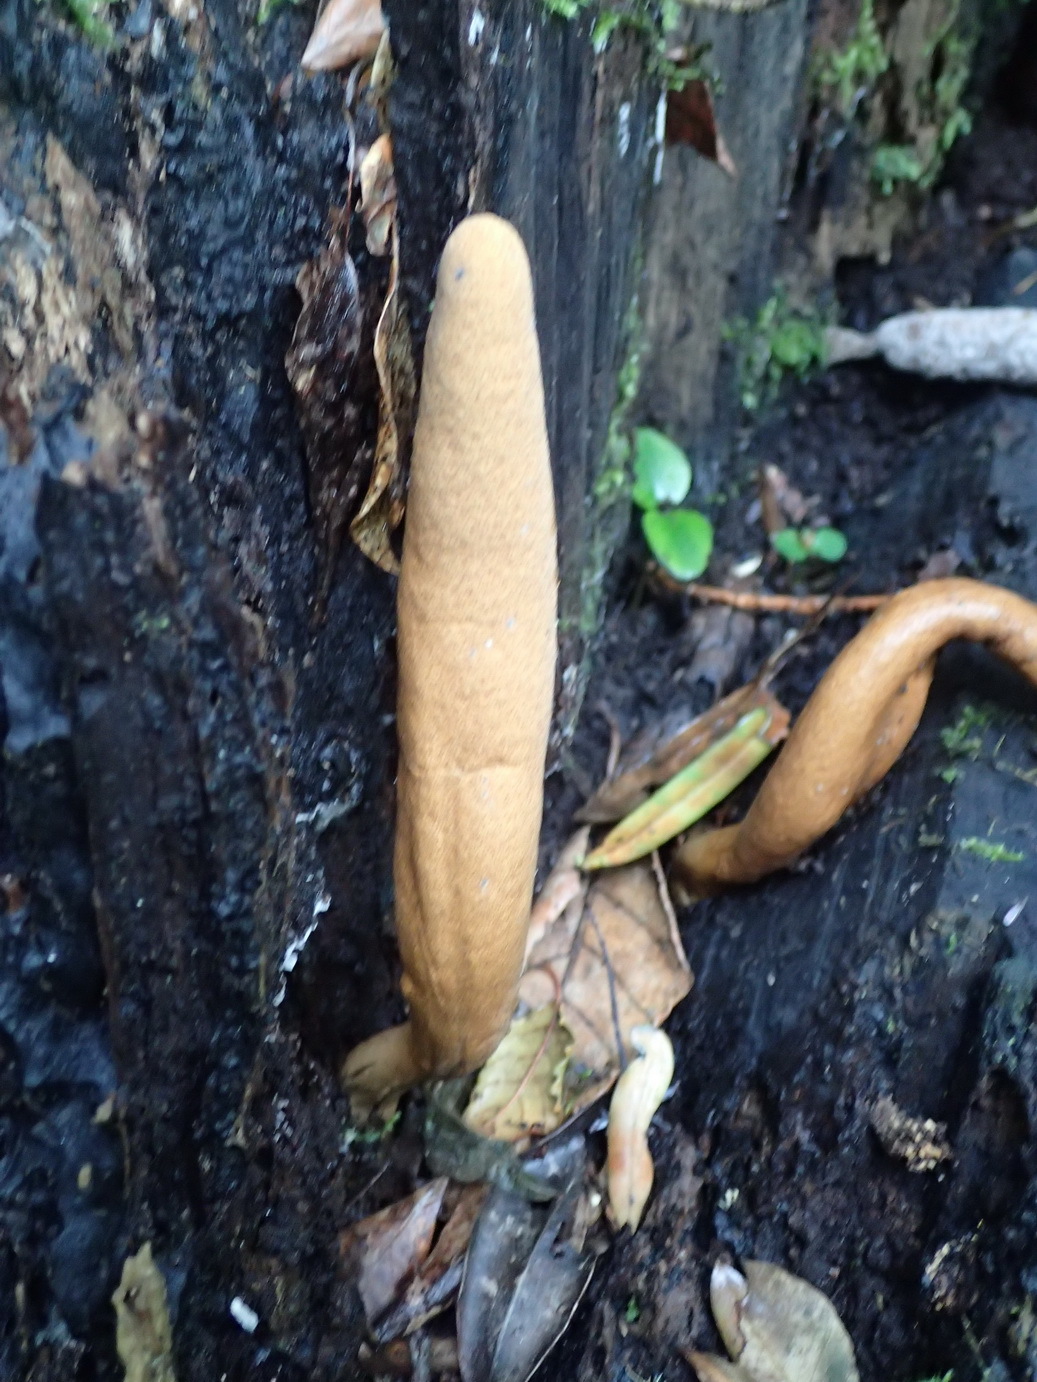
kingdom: Fungi
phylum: Ascomycota
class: Sordariomycetes
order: Xylariales
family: Xylariaceae
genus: Xylaria
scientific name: Xylaria telfairii
